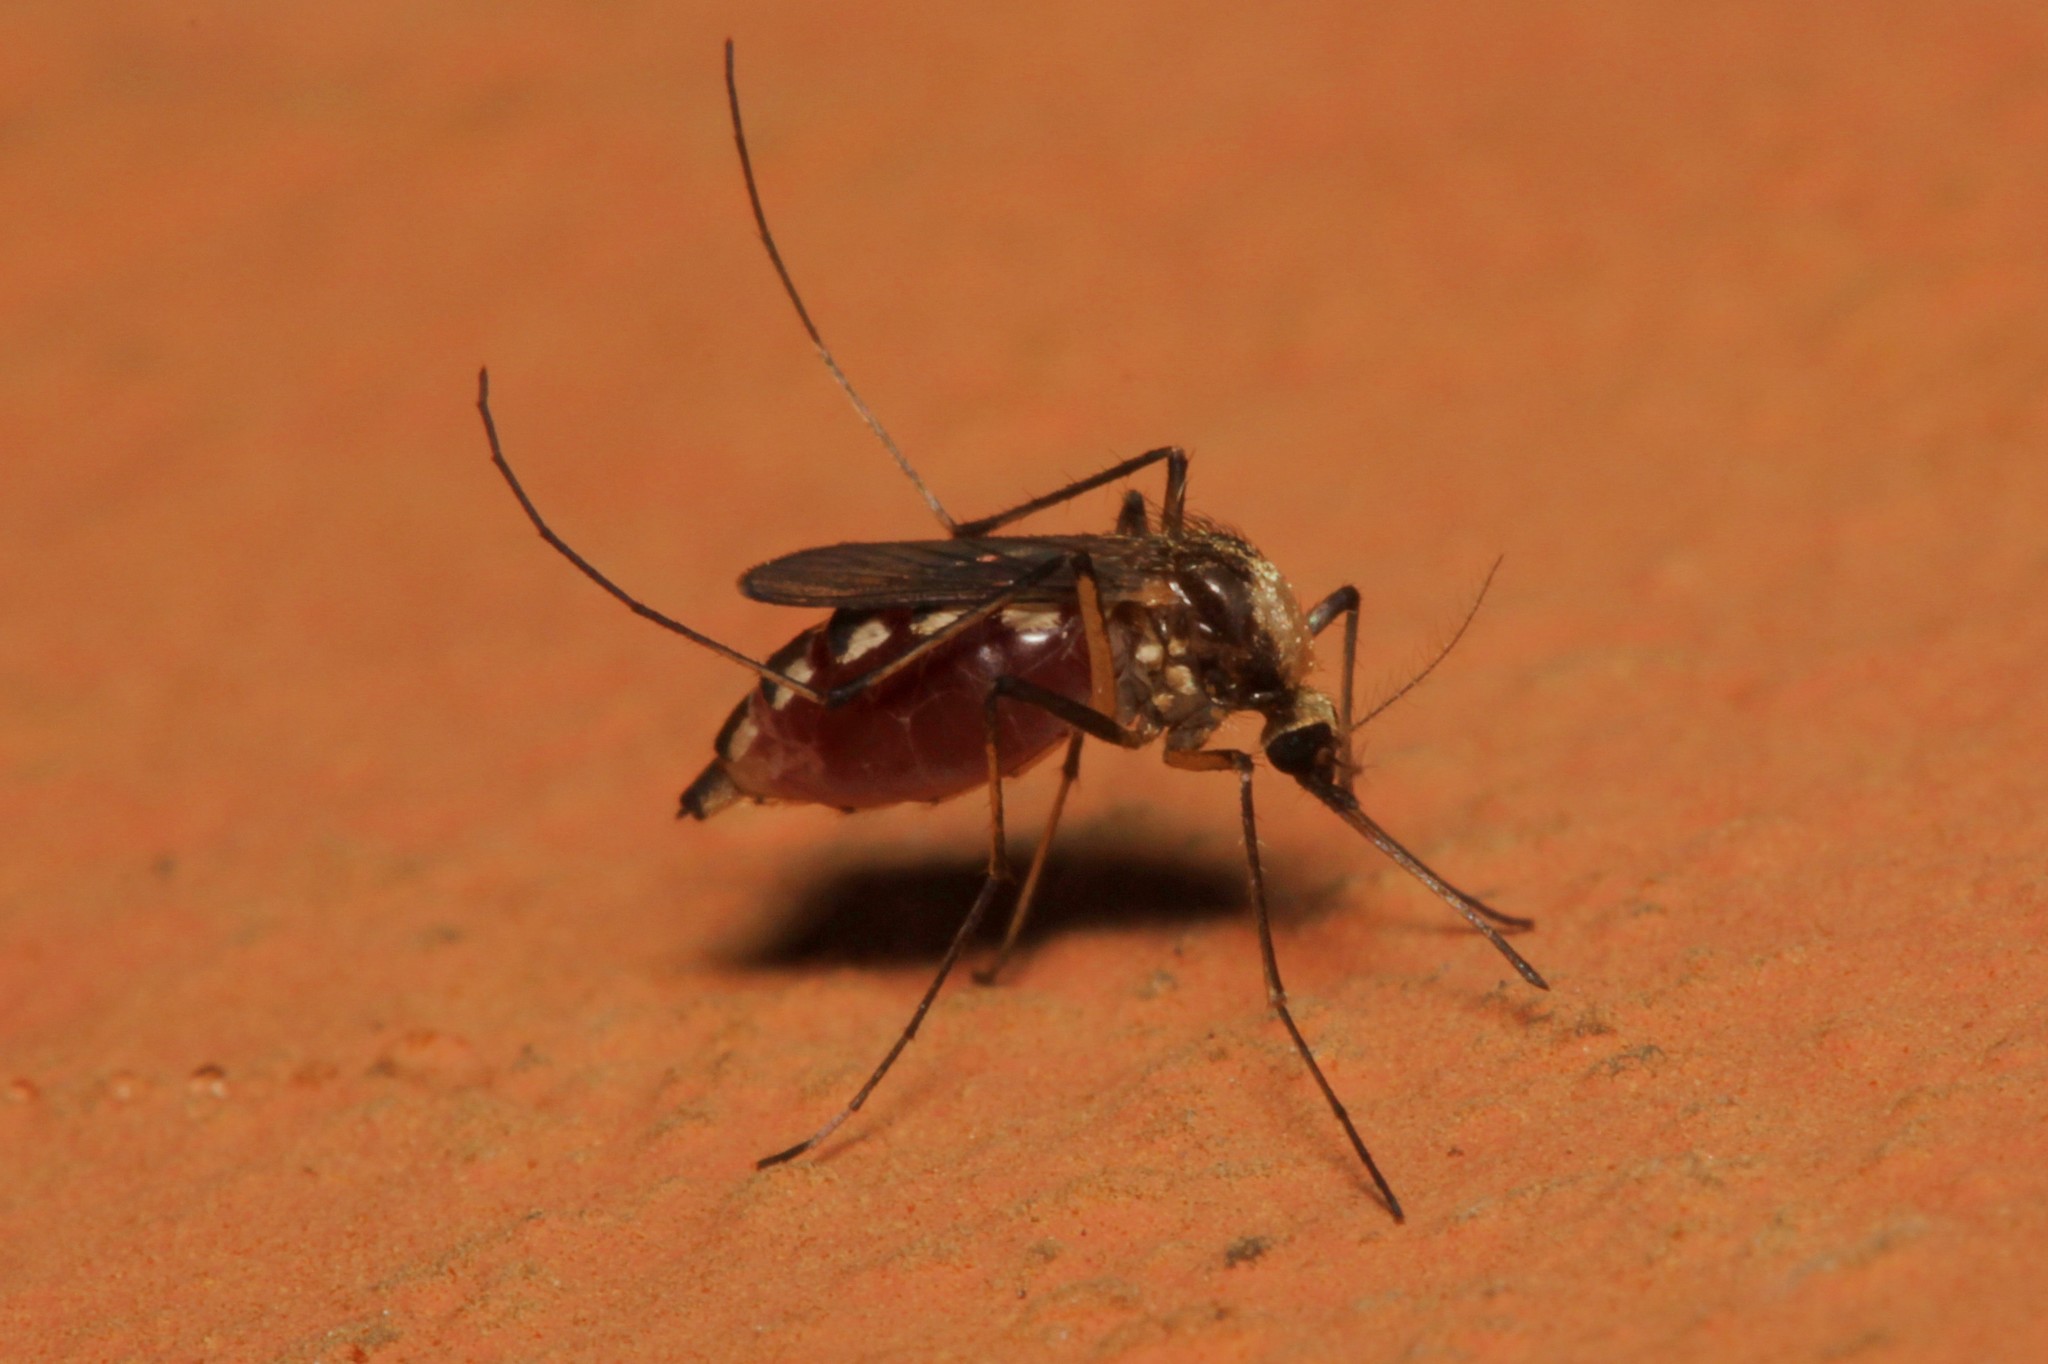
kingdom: Animalia
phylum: Arthropoda
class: Insecta
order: Diptera
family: Culicidae
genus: Aedes
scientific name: Aedes scapularis
